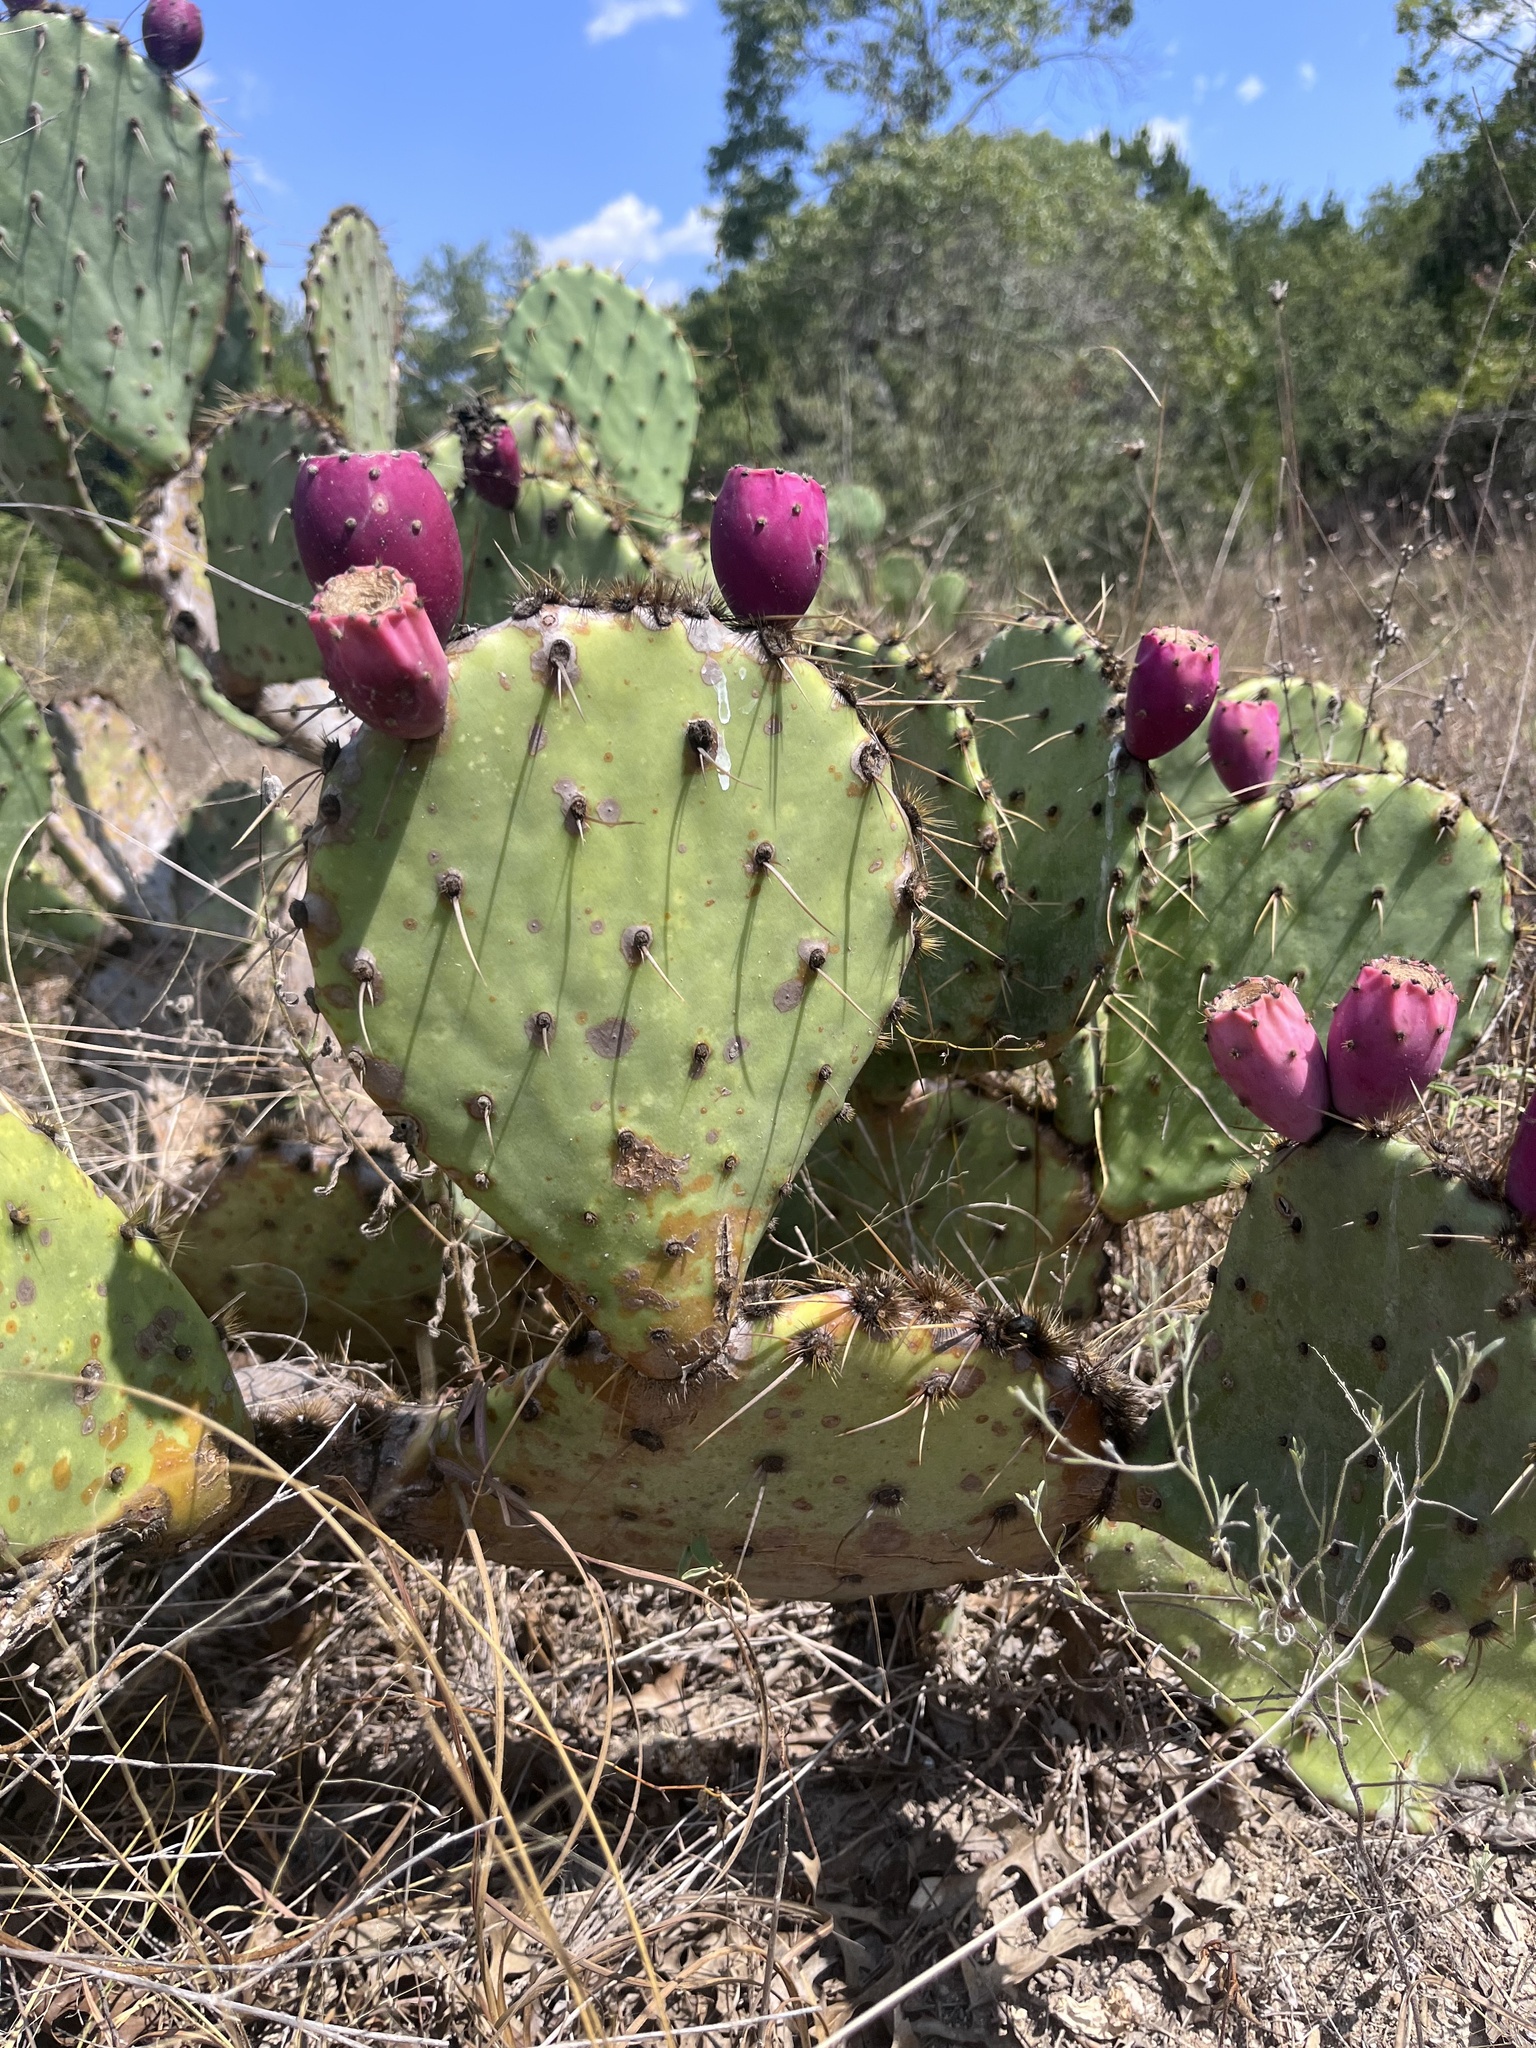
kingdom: Plantae
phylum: Tracheophyta
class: Magnoliopsida
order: Caryophyllales
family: Cactaceae
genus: Opuntia
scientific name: Opuntia engelmannii
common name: Cactus-apple
